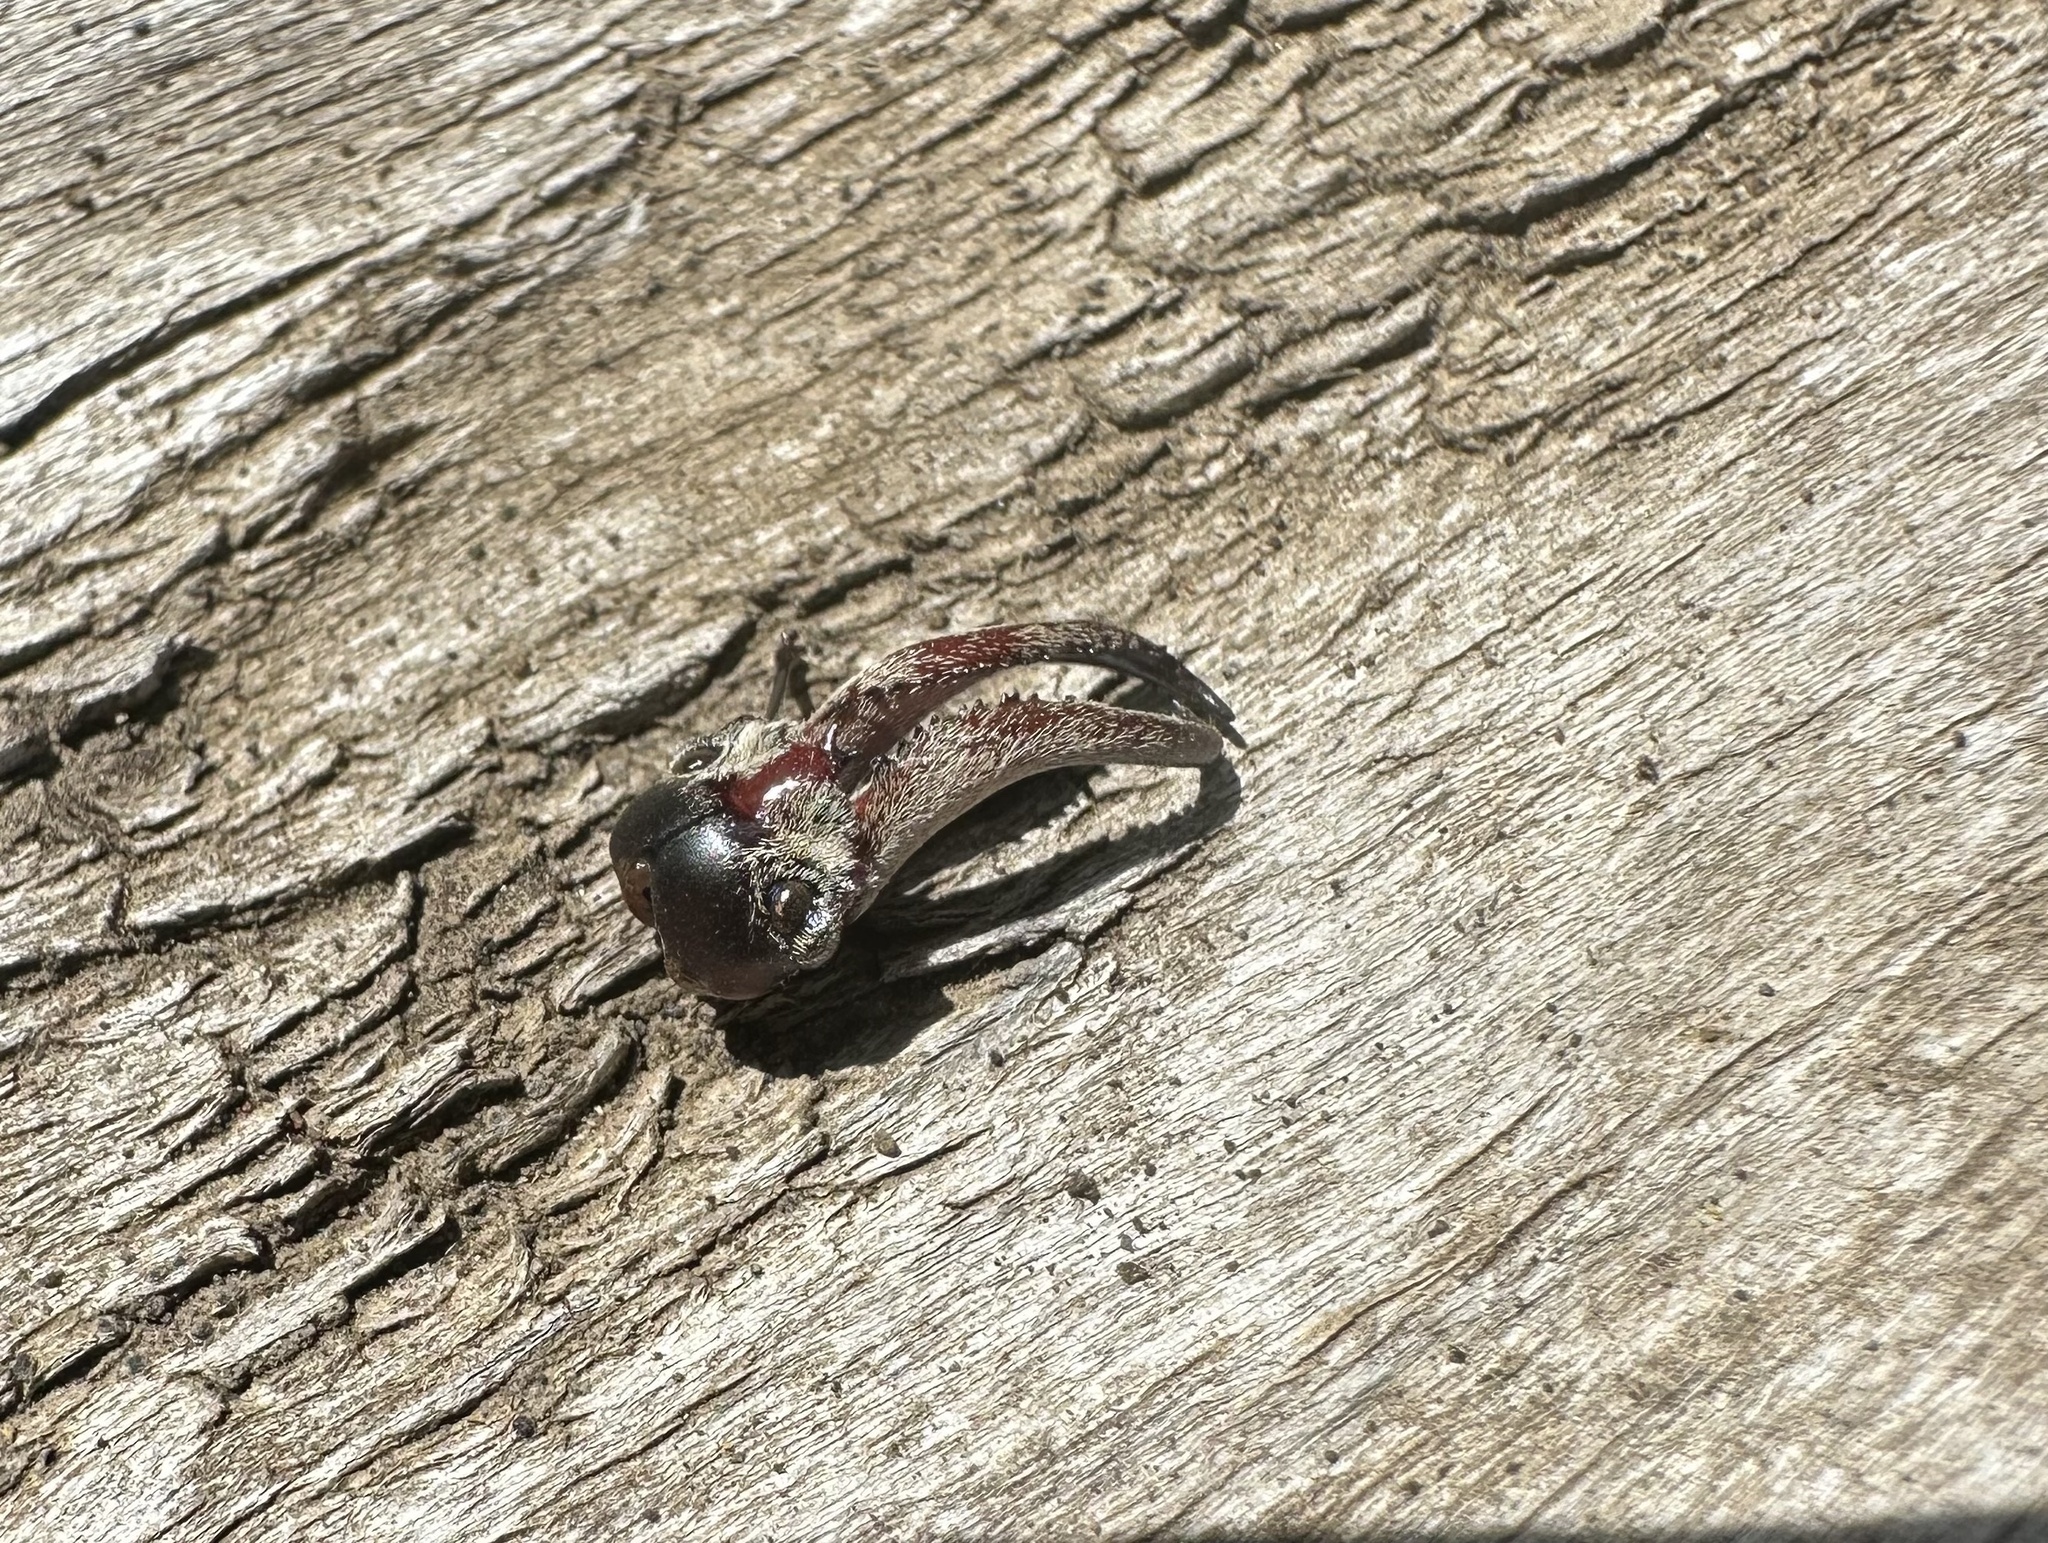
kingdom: Animalia
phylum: Arthropoda
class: Insecta
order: Coleoptera
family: Lucanidae
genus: Chiasognathus
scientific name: Chiasognathus mniszechii
